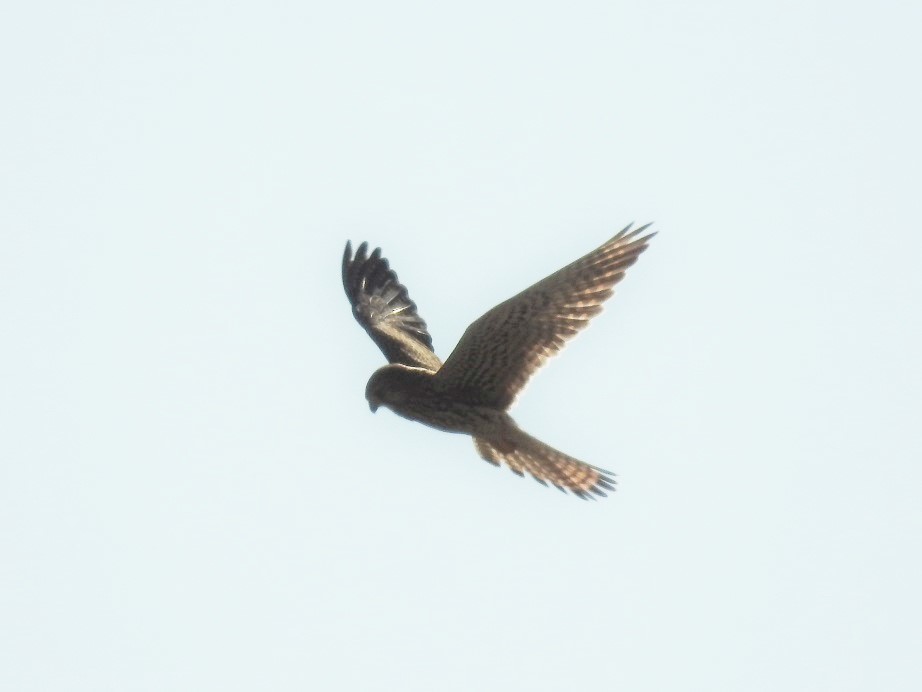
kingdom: Animalia
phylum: Chordata
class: Aves
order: Falconiformes
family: Falconidae
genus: Falco
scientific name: Falco tinnunculus
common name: Common kestrel
